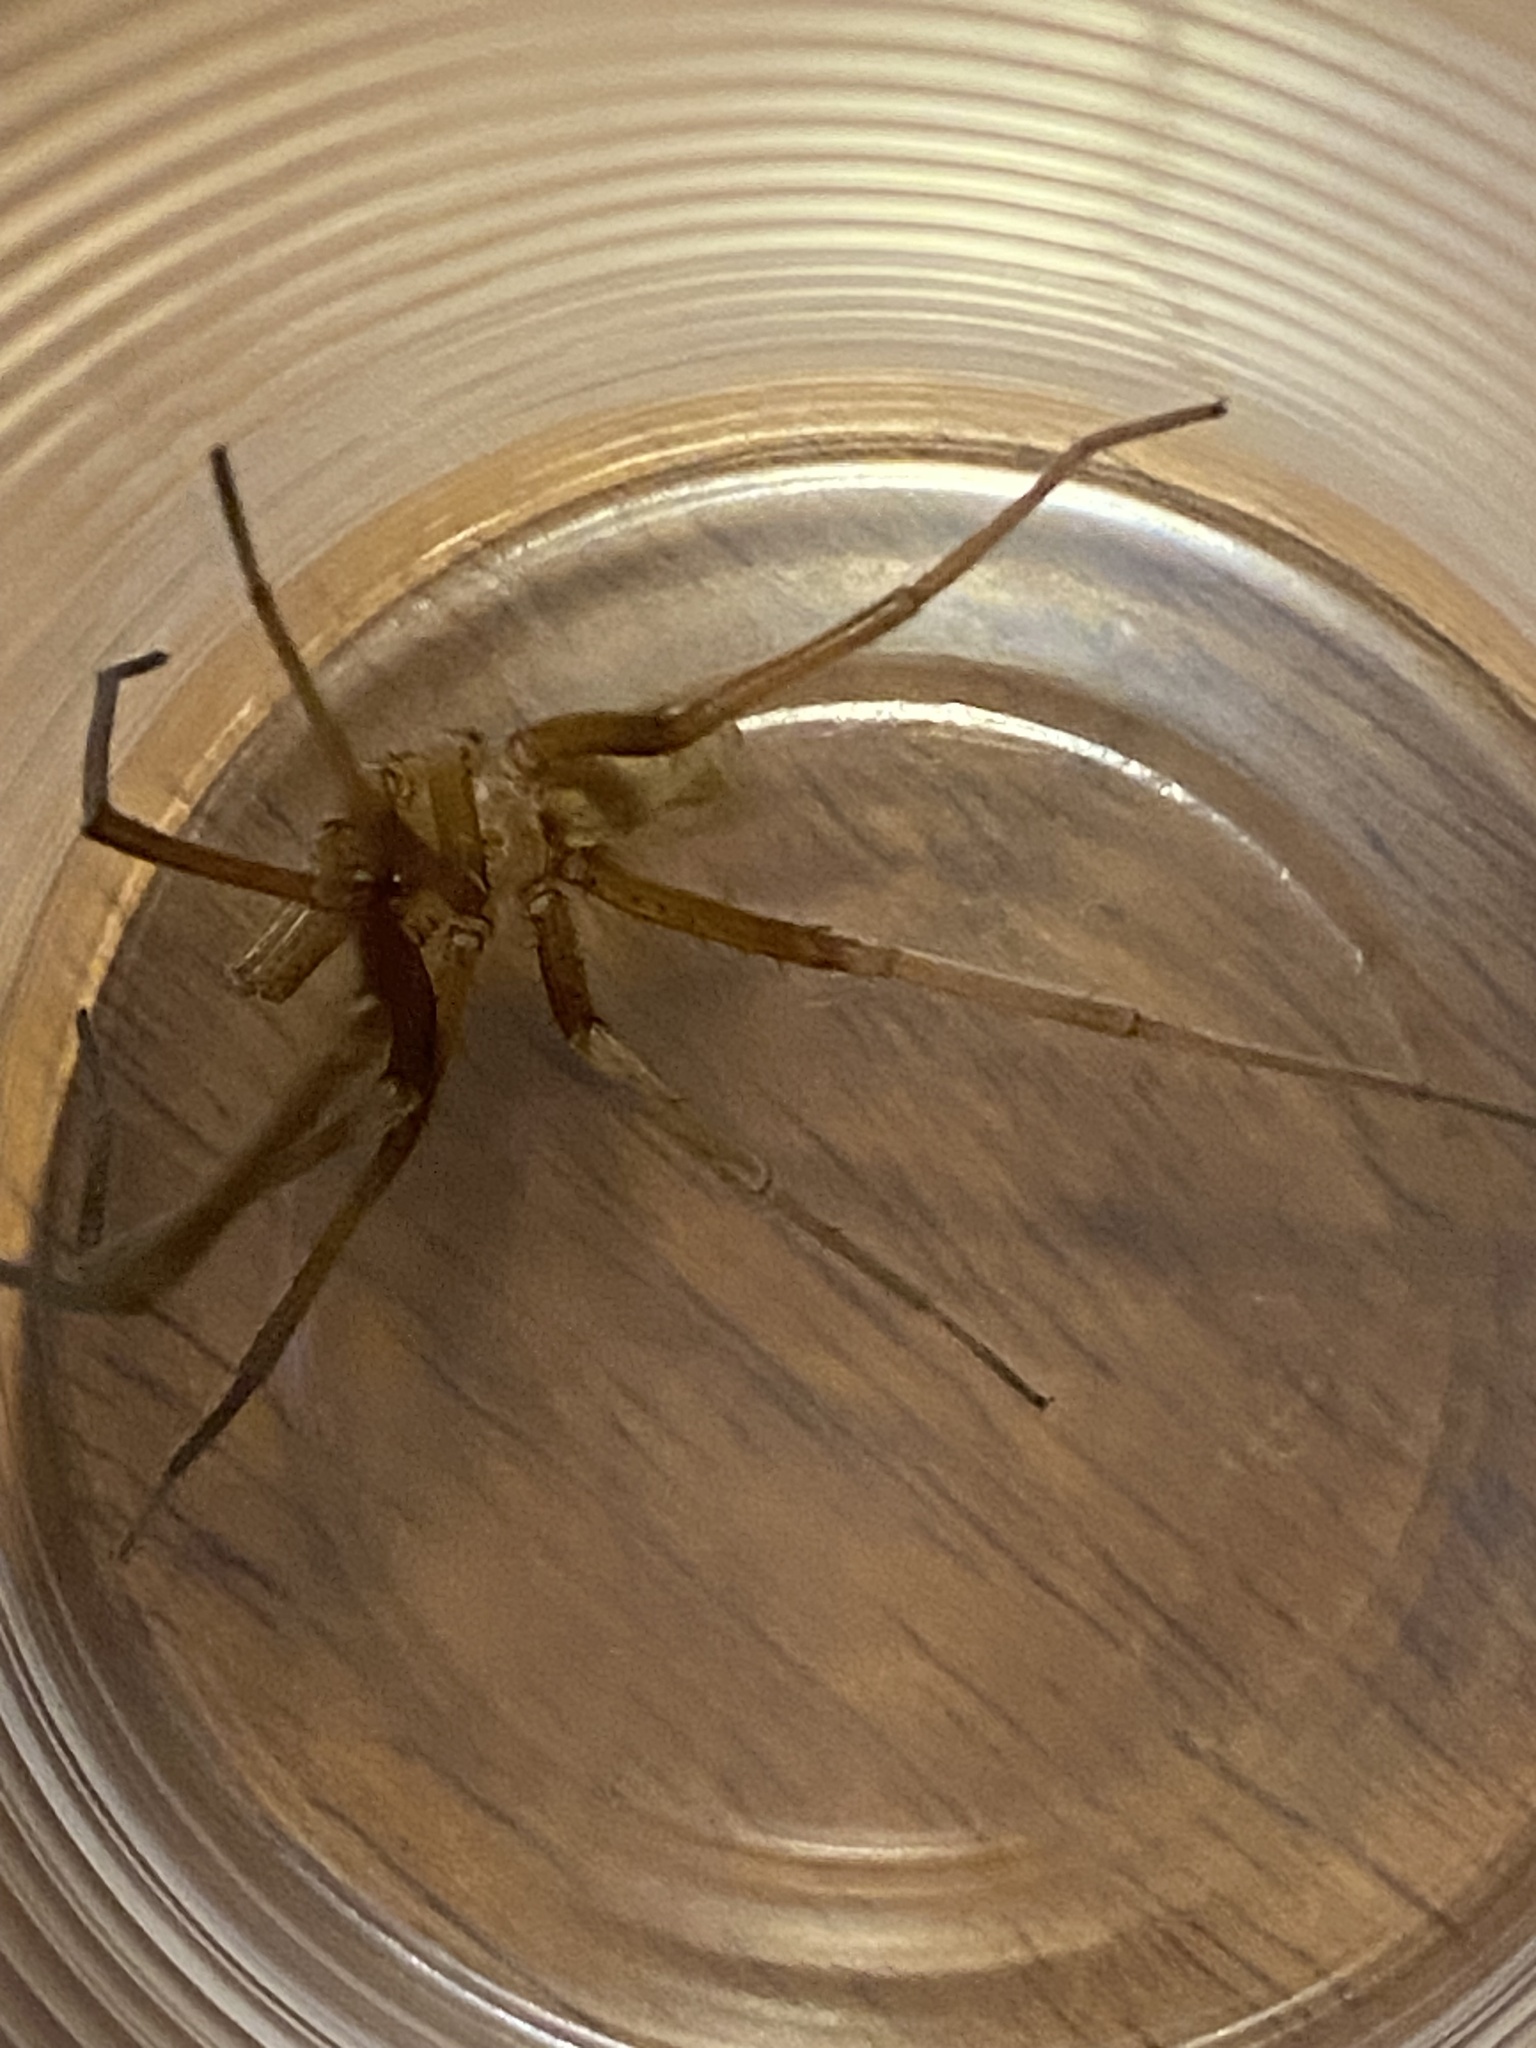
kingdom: Animalia
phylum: Arthropoda
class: Arachnida
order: Araneae
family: Filistatidae
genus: Kukulcania
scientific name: Kukulcania hibernalis
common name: Crevice weaver
